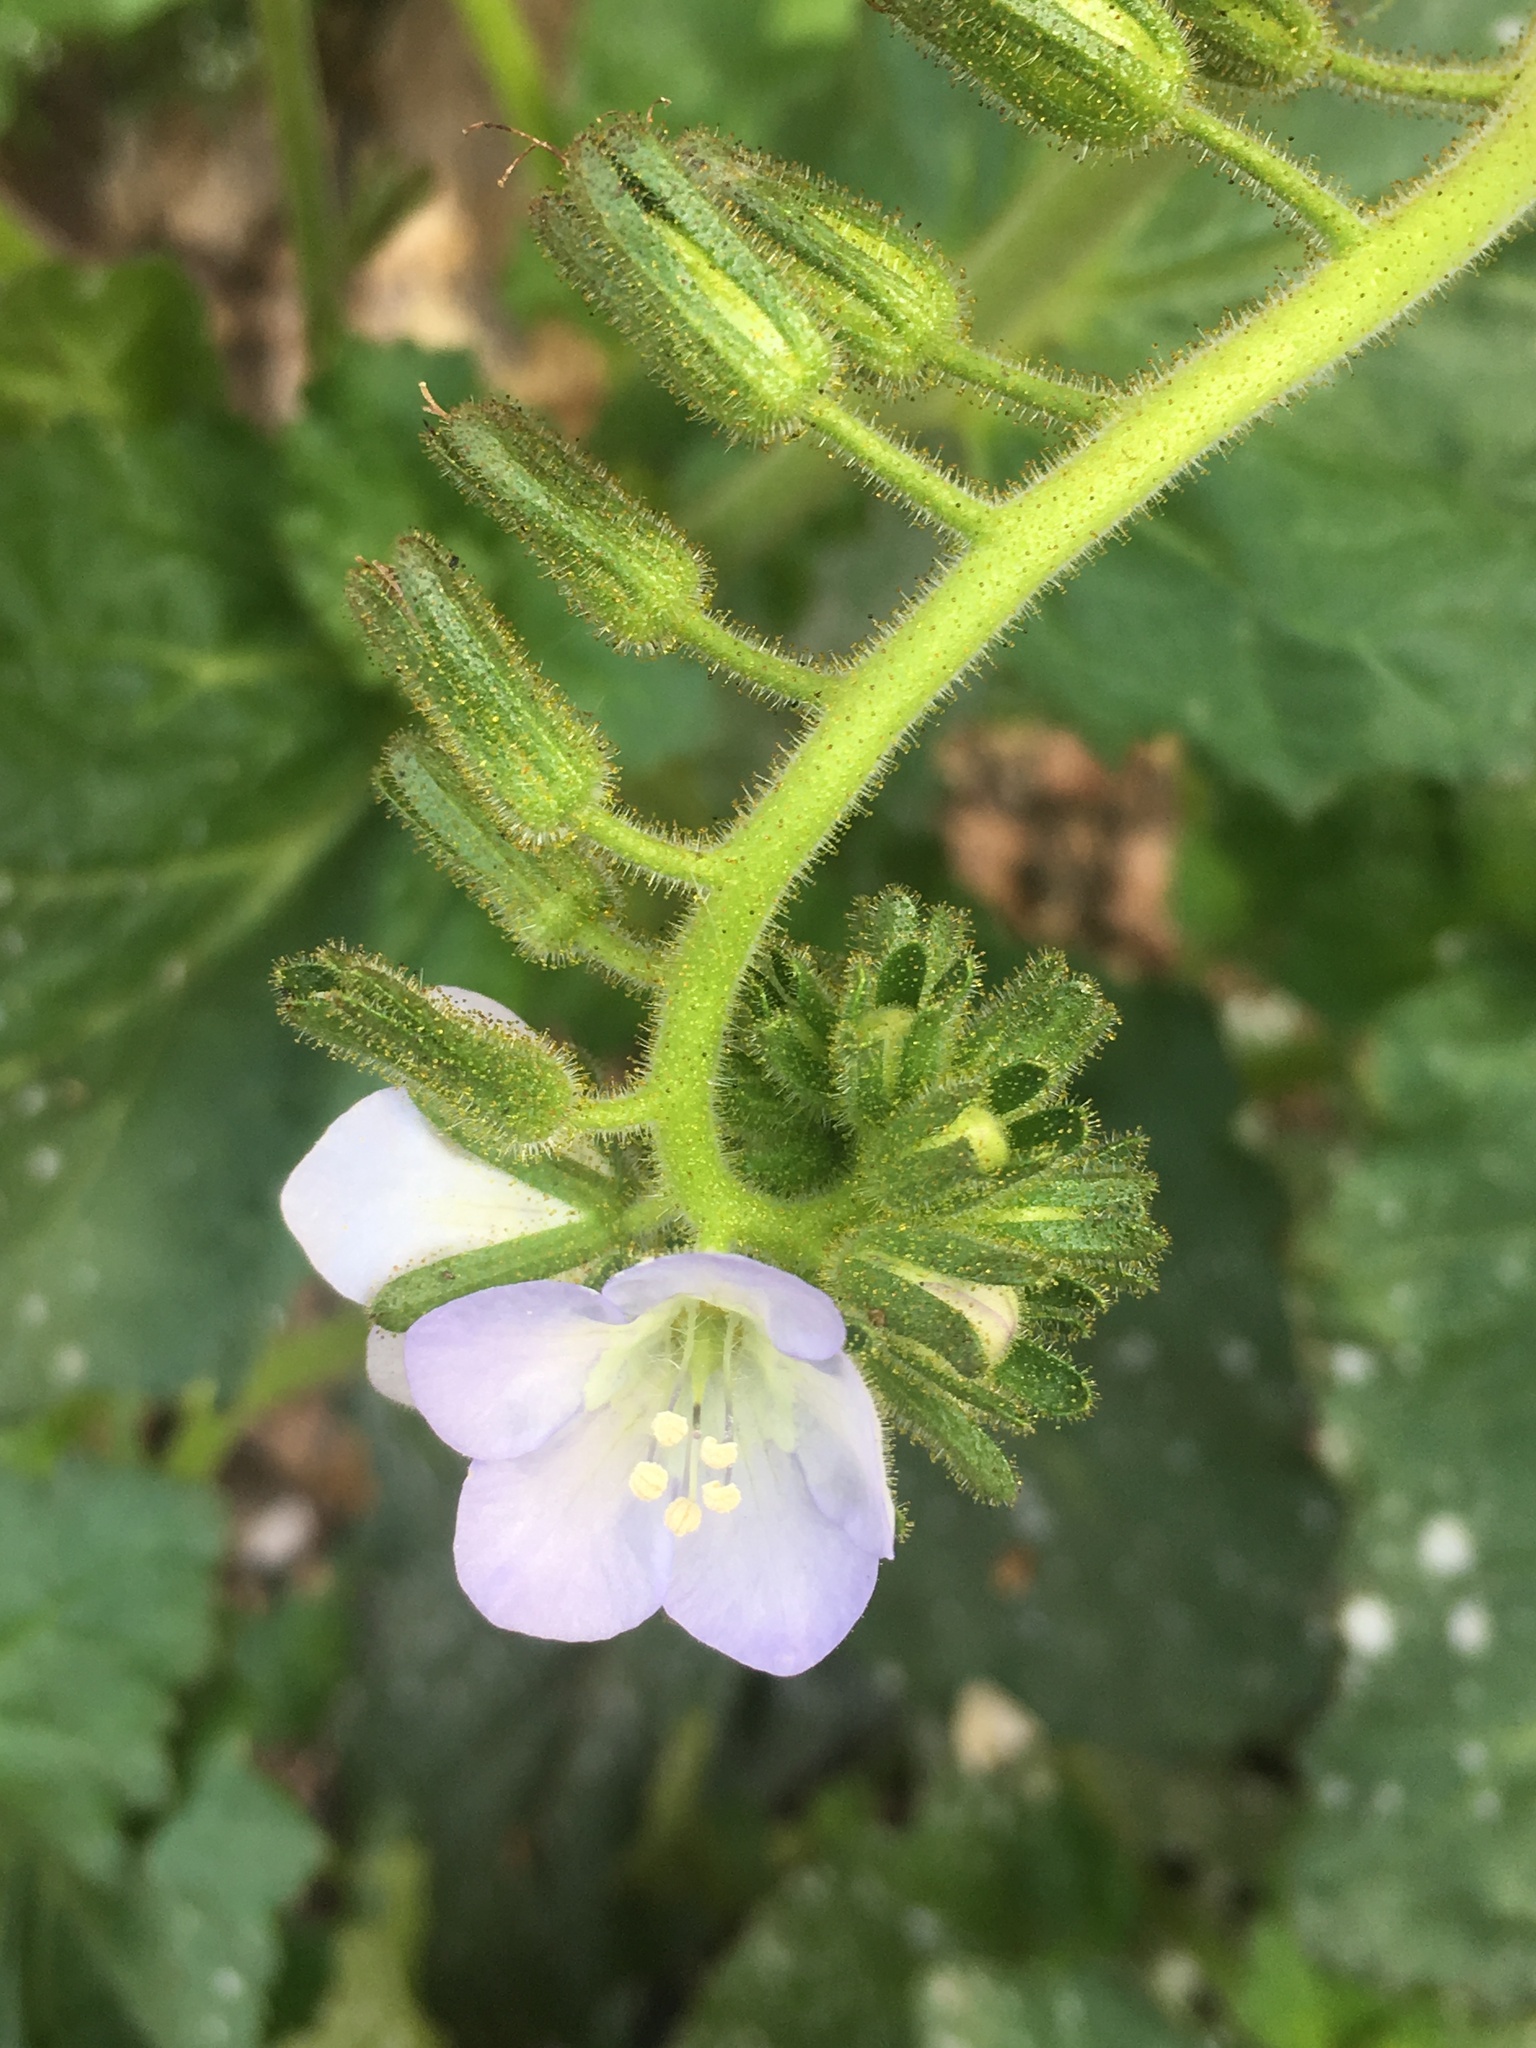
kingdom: Plantae
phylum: Tracheophyta
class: Magnoliopsida
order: Boraginales
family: Hydrophyllaceae
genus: Phacelia
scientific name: Phacelia viscida
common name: Sticky phacelia
